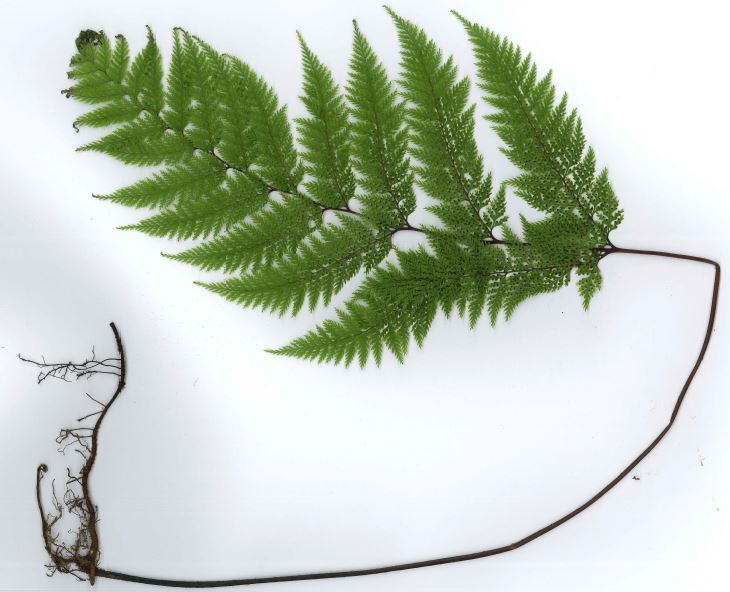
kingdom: Plantae
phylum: Tracheophyta
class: Polypodiopsida
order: Polypodiales
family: Dennstaedtiaceae
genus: Dennstaedtia
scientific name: Dennstaedtia novae-zelandiae
